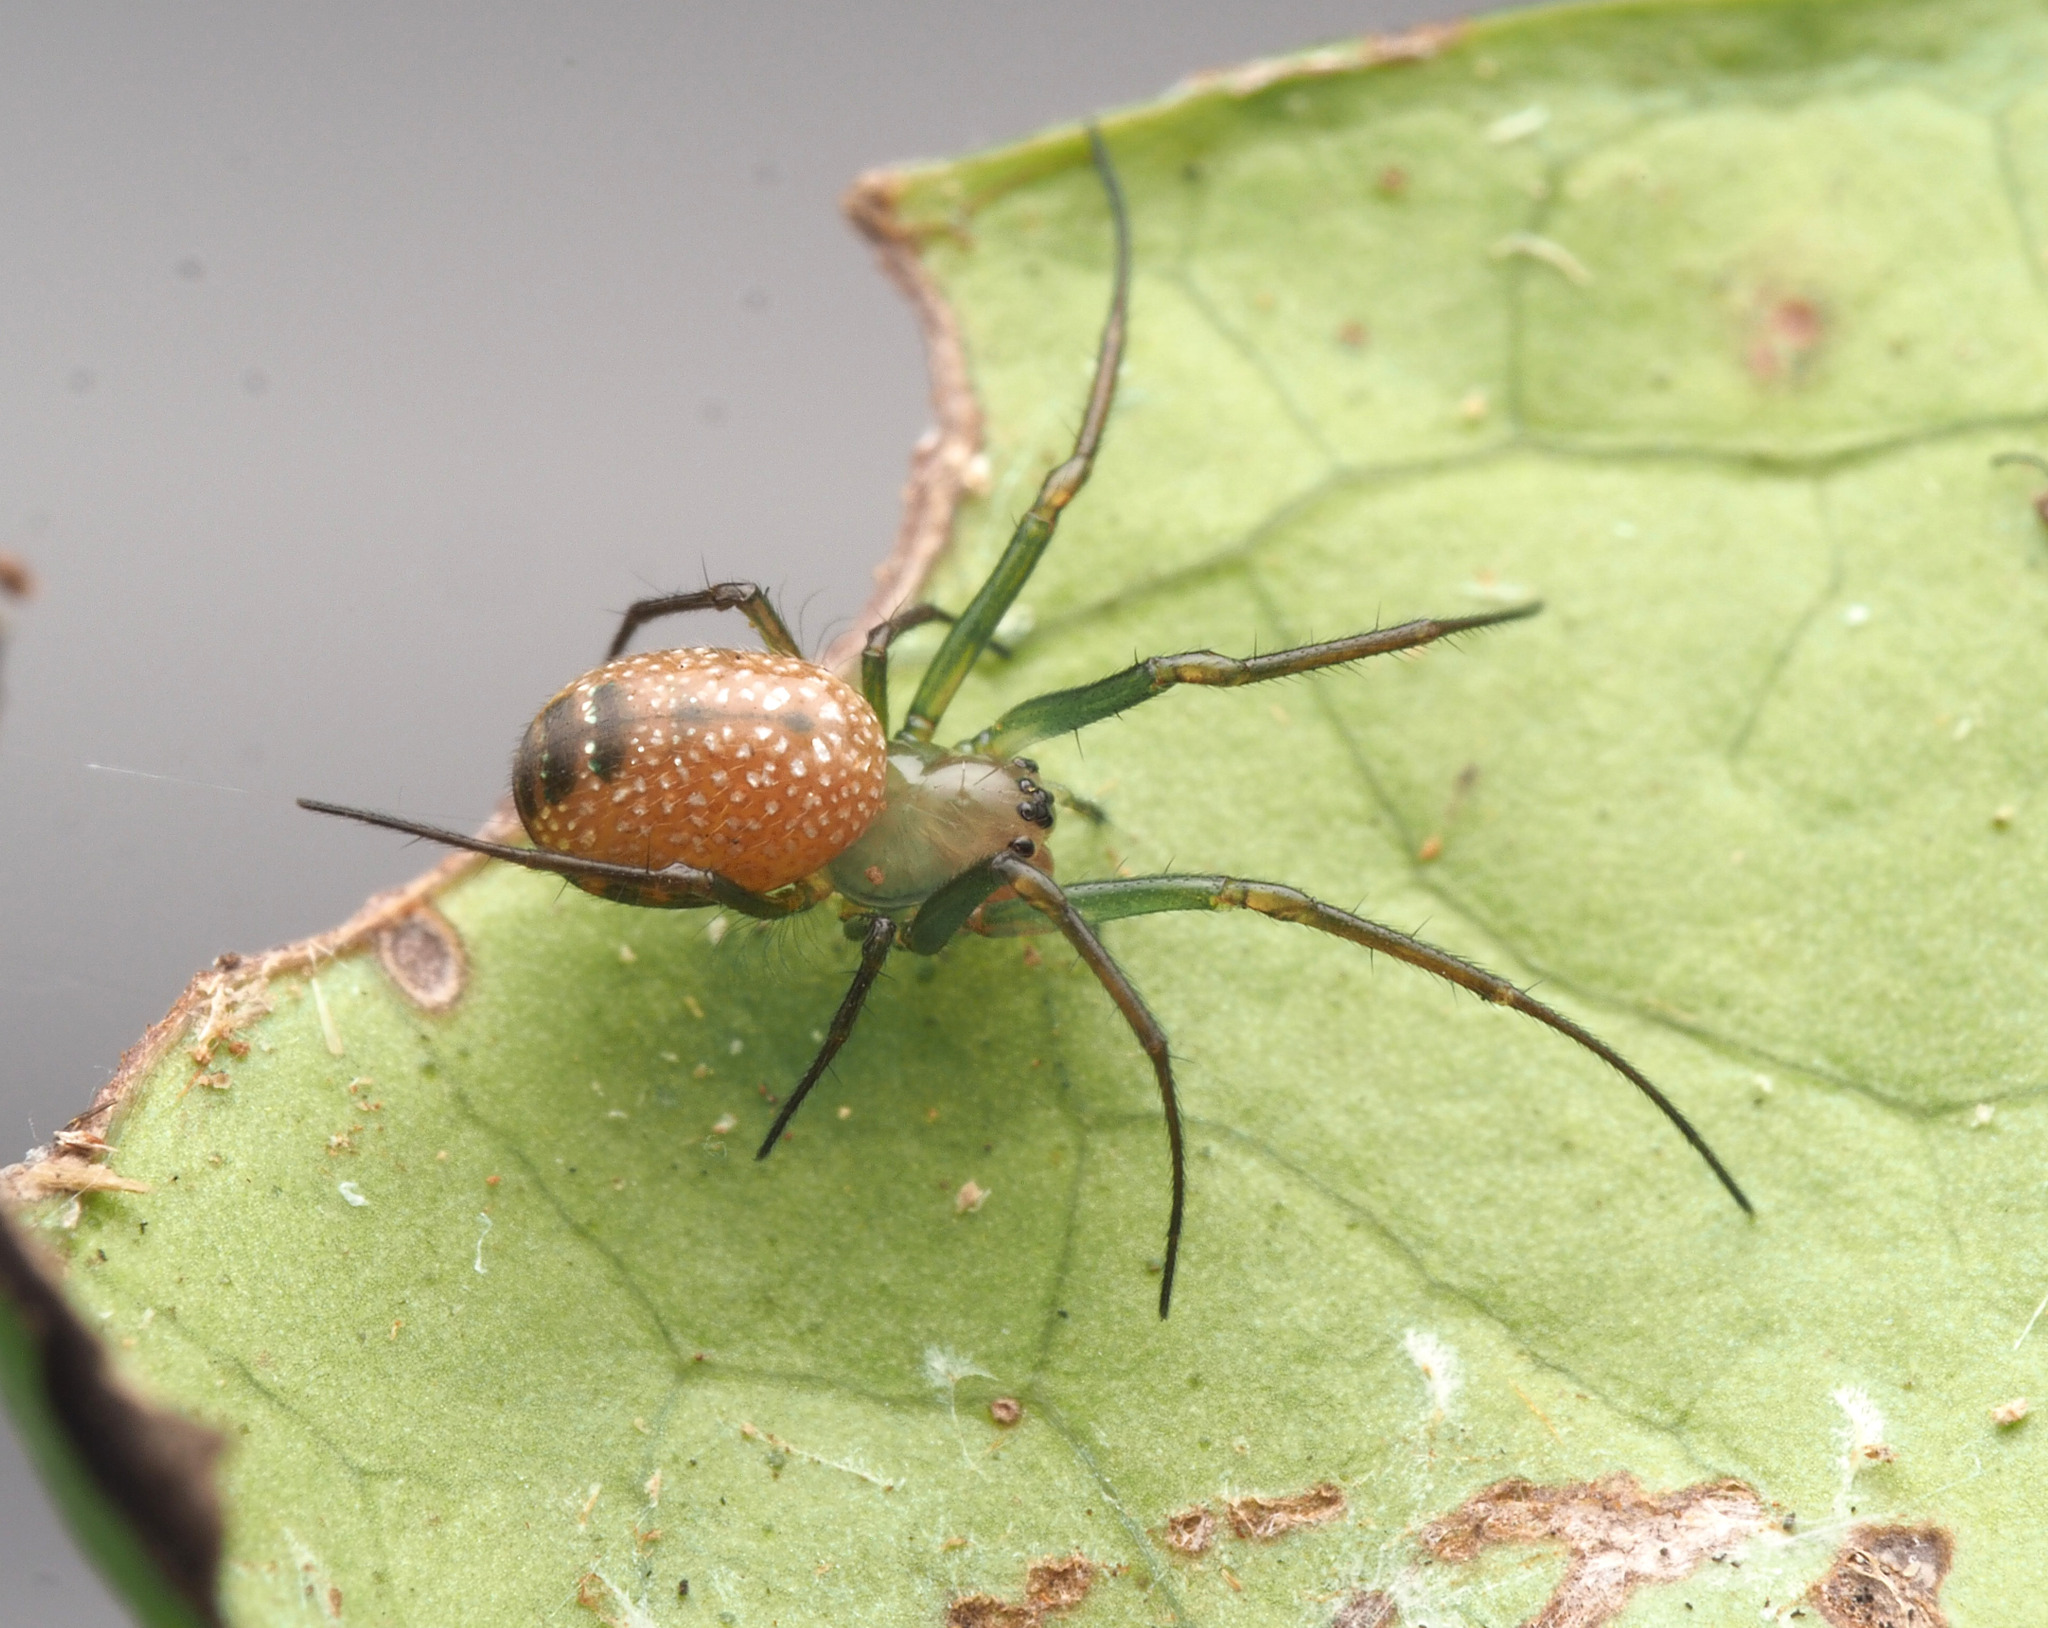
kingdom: Animalia
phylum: Arthropoda
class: Arachnida
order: Araneae
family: Tetragnathidae
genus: Mesida
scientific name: Mesida
